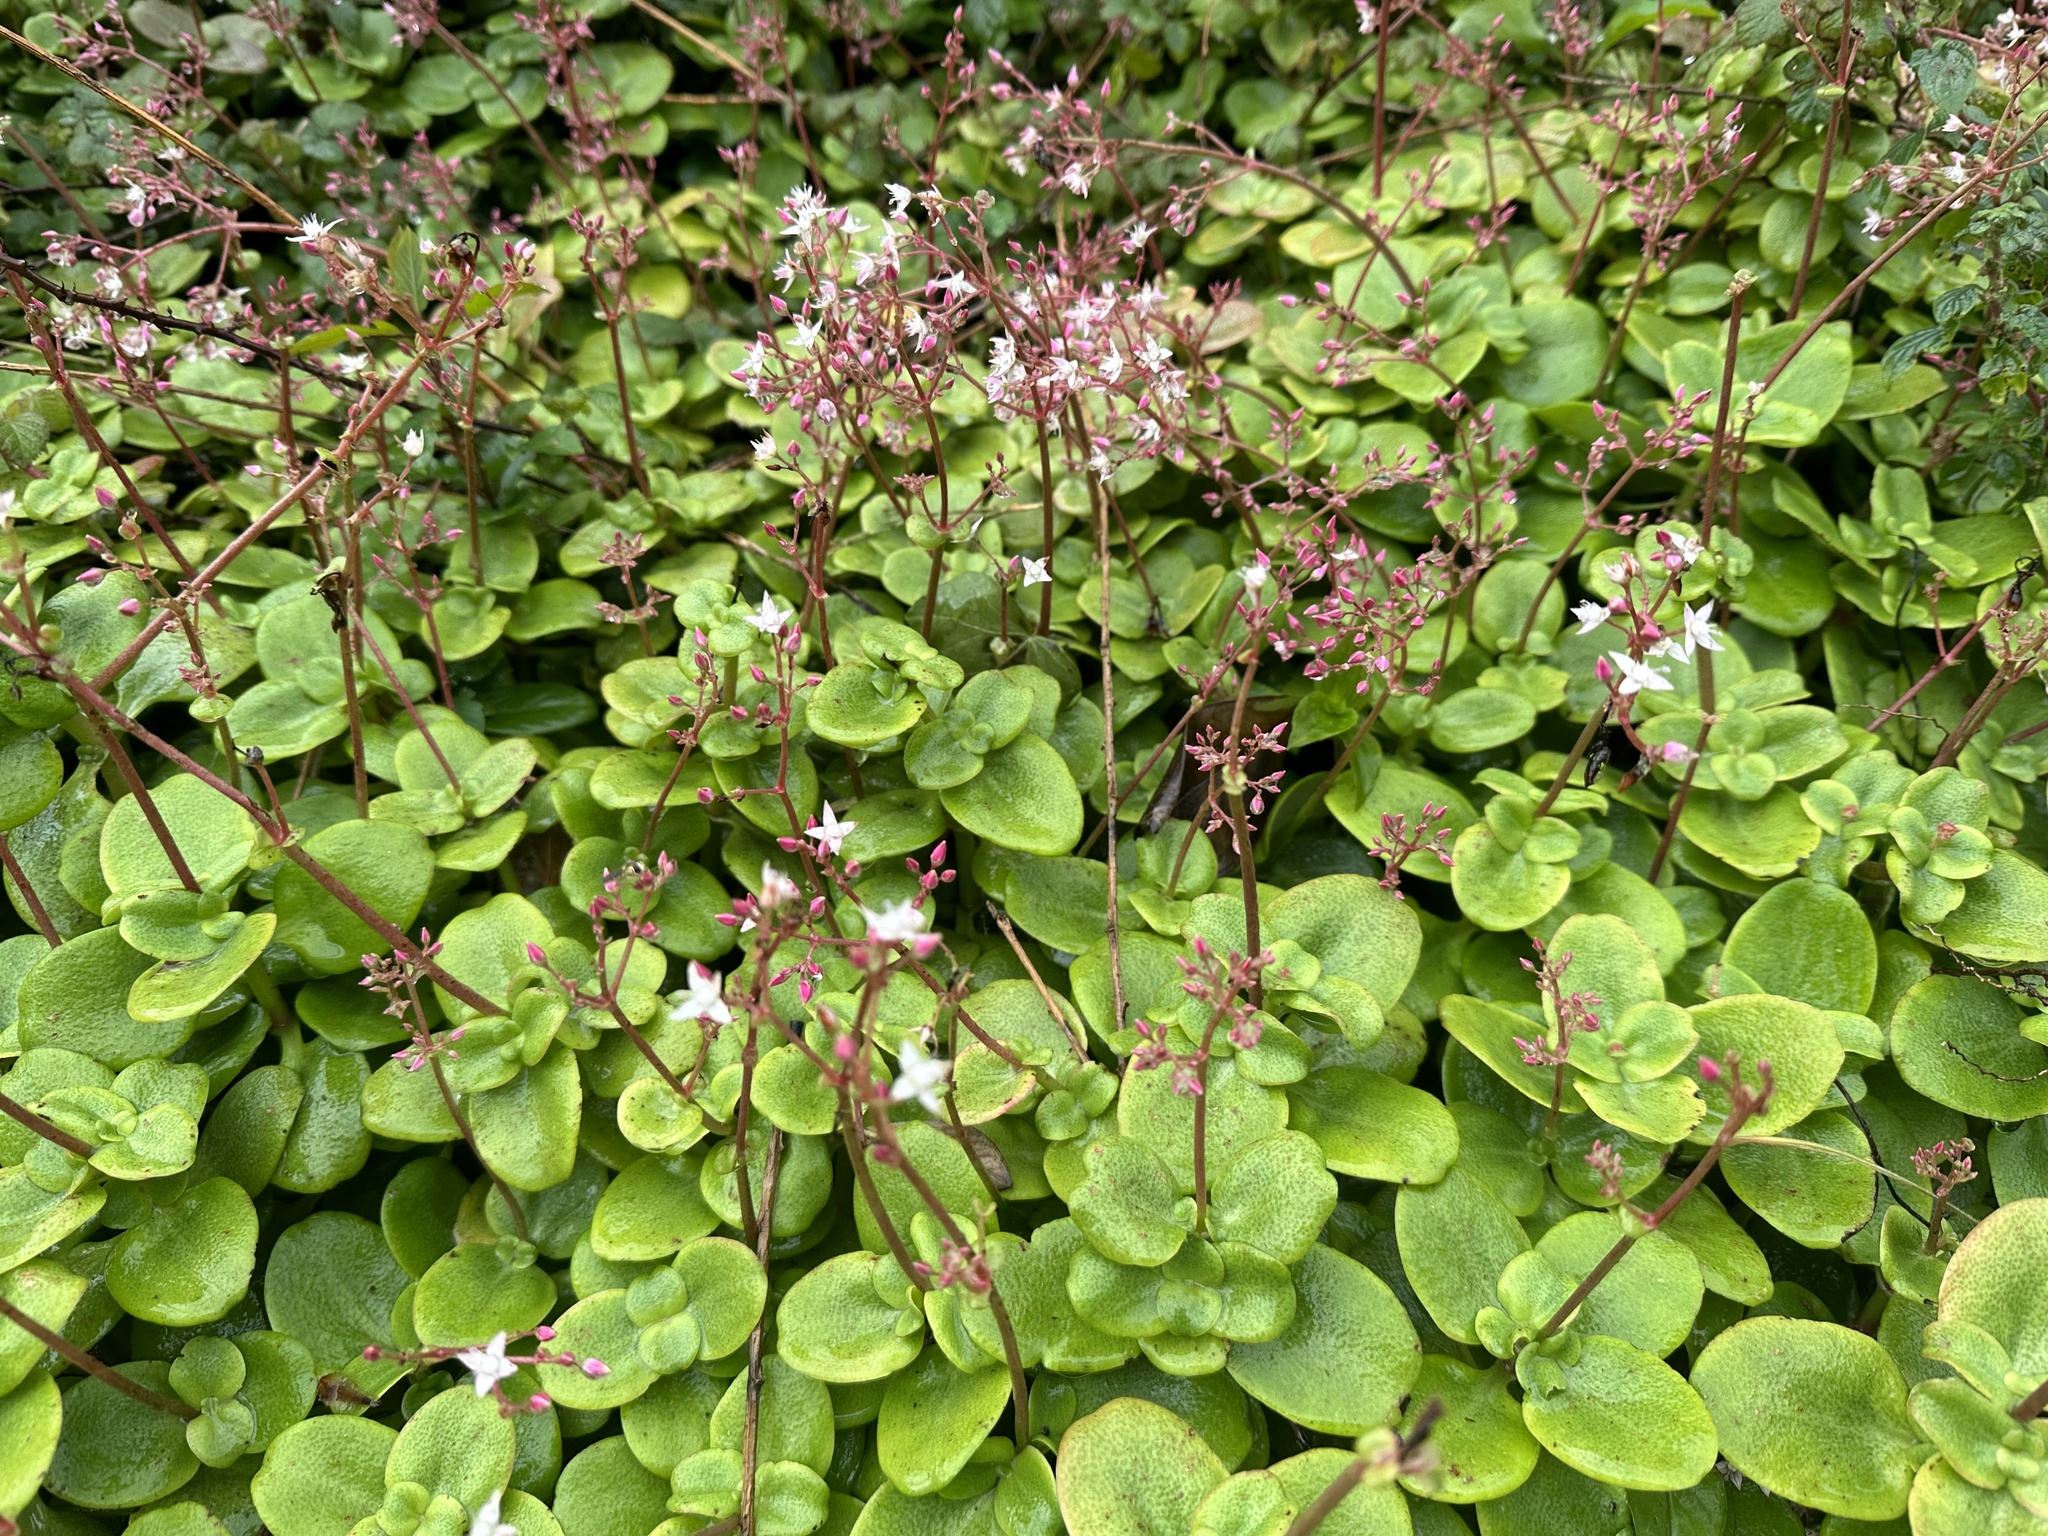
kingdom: Plantae
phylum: Tracheophyta
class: Magnoliopsida
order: Saxifragales
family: Crassulaceae
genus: Crassula
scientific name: Crassula multicava
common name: Cape province pygmyweed
